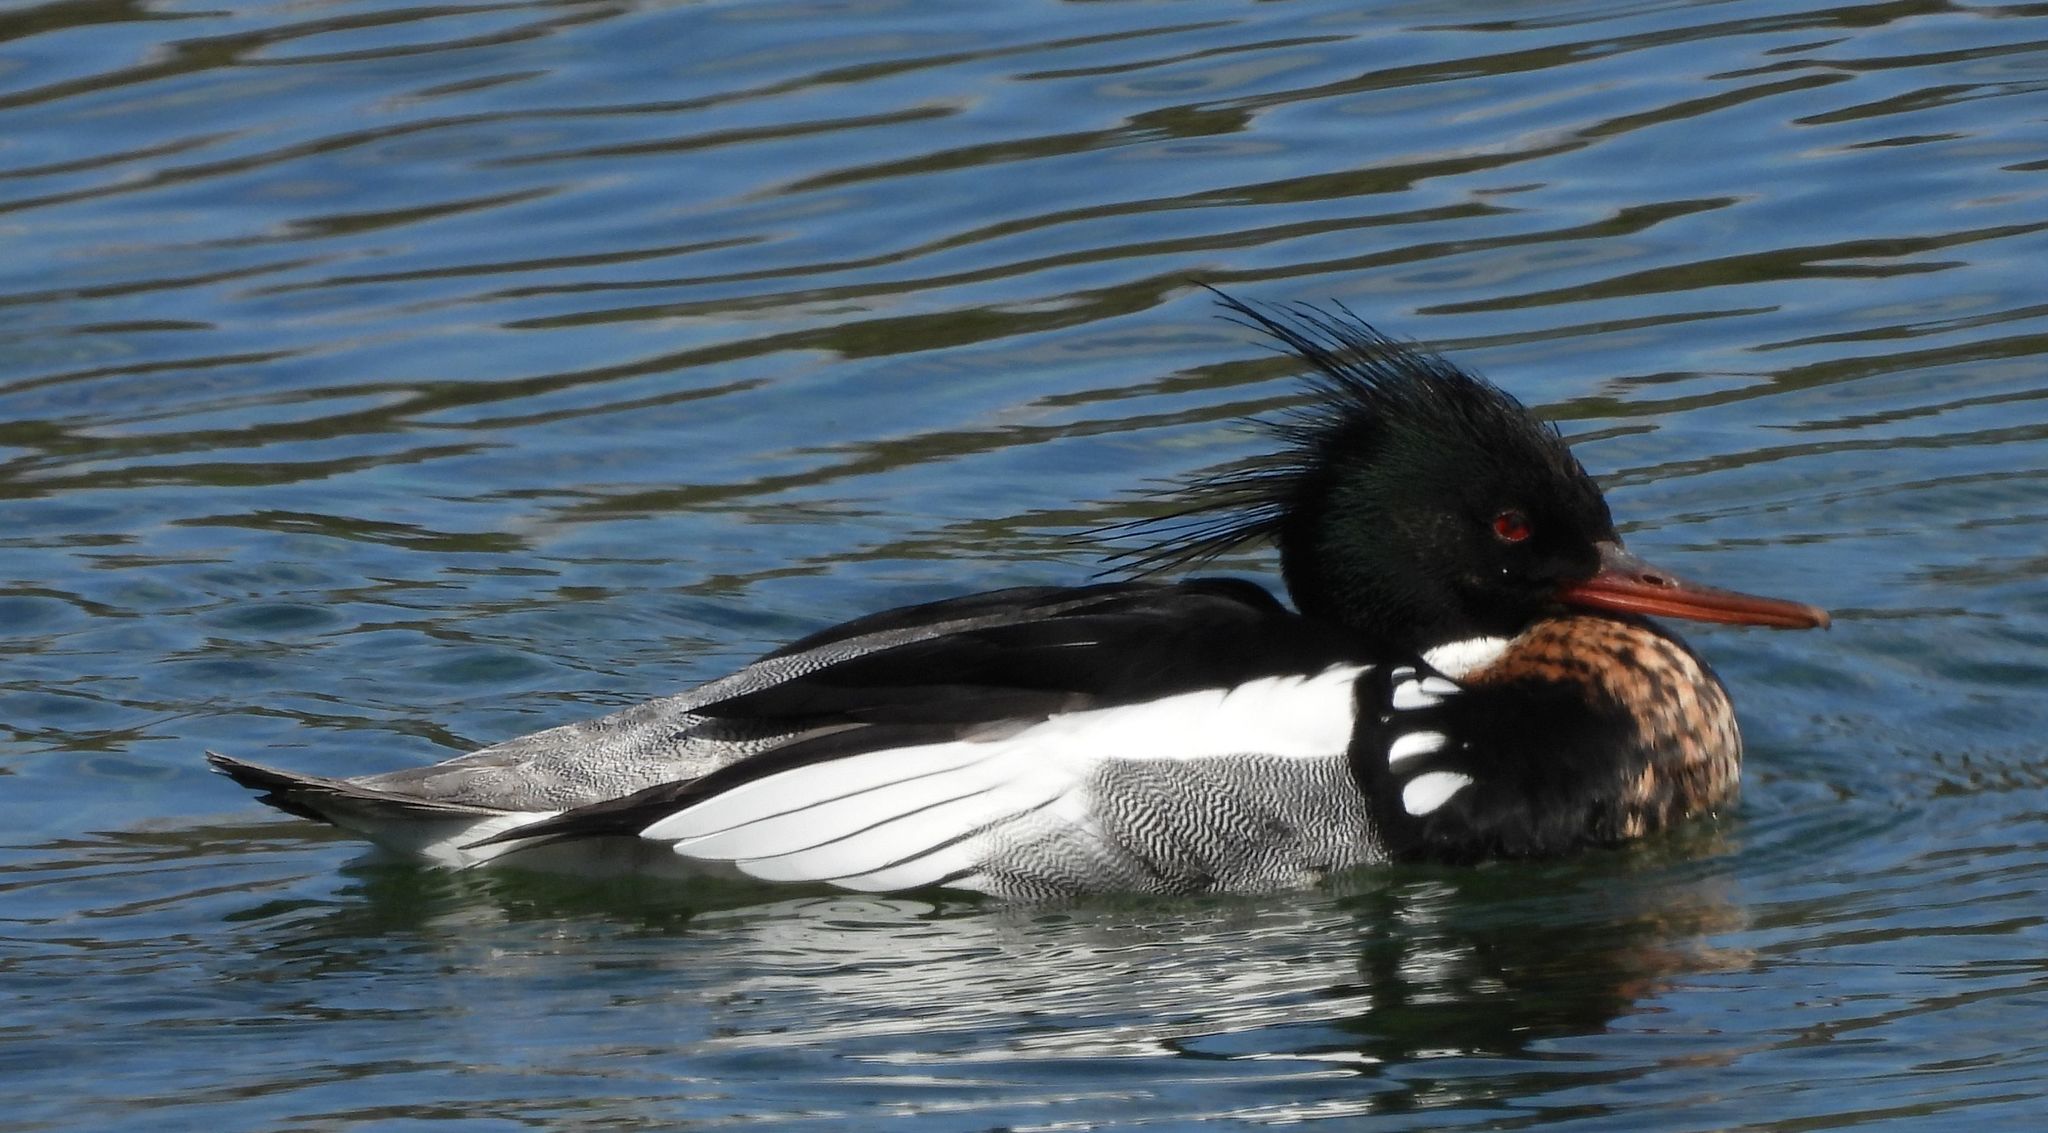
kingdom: Animalia
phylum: Chordata
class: Aves
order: Anseriformes
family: Anatidae
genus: Mergus
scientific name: Mergus serrator
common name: Red-breasted merganser
